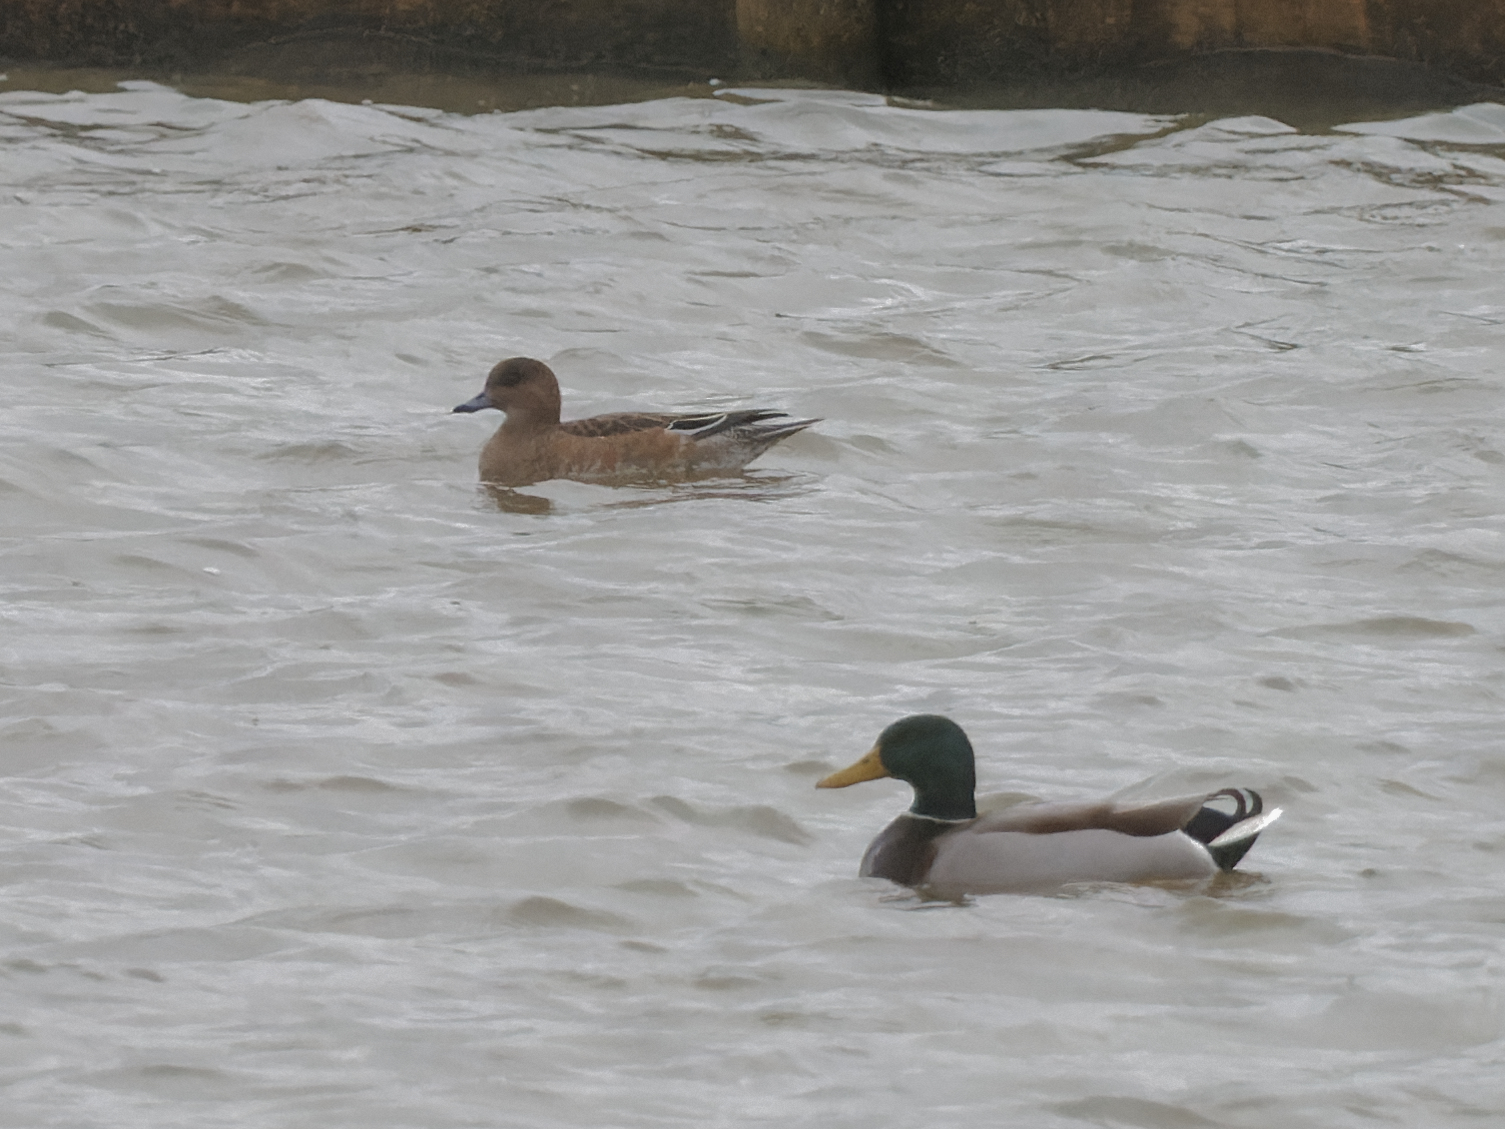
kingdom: Animalia
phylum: Chordata
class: Aves
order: Anseriformes
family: Anatidae
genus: Mareca
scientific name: Mareca penelope
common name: Eurasian wigeon
